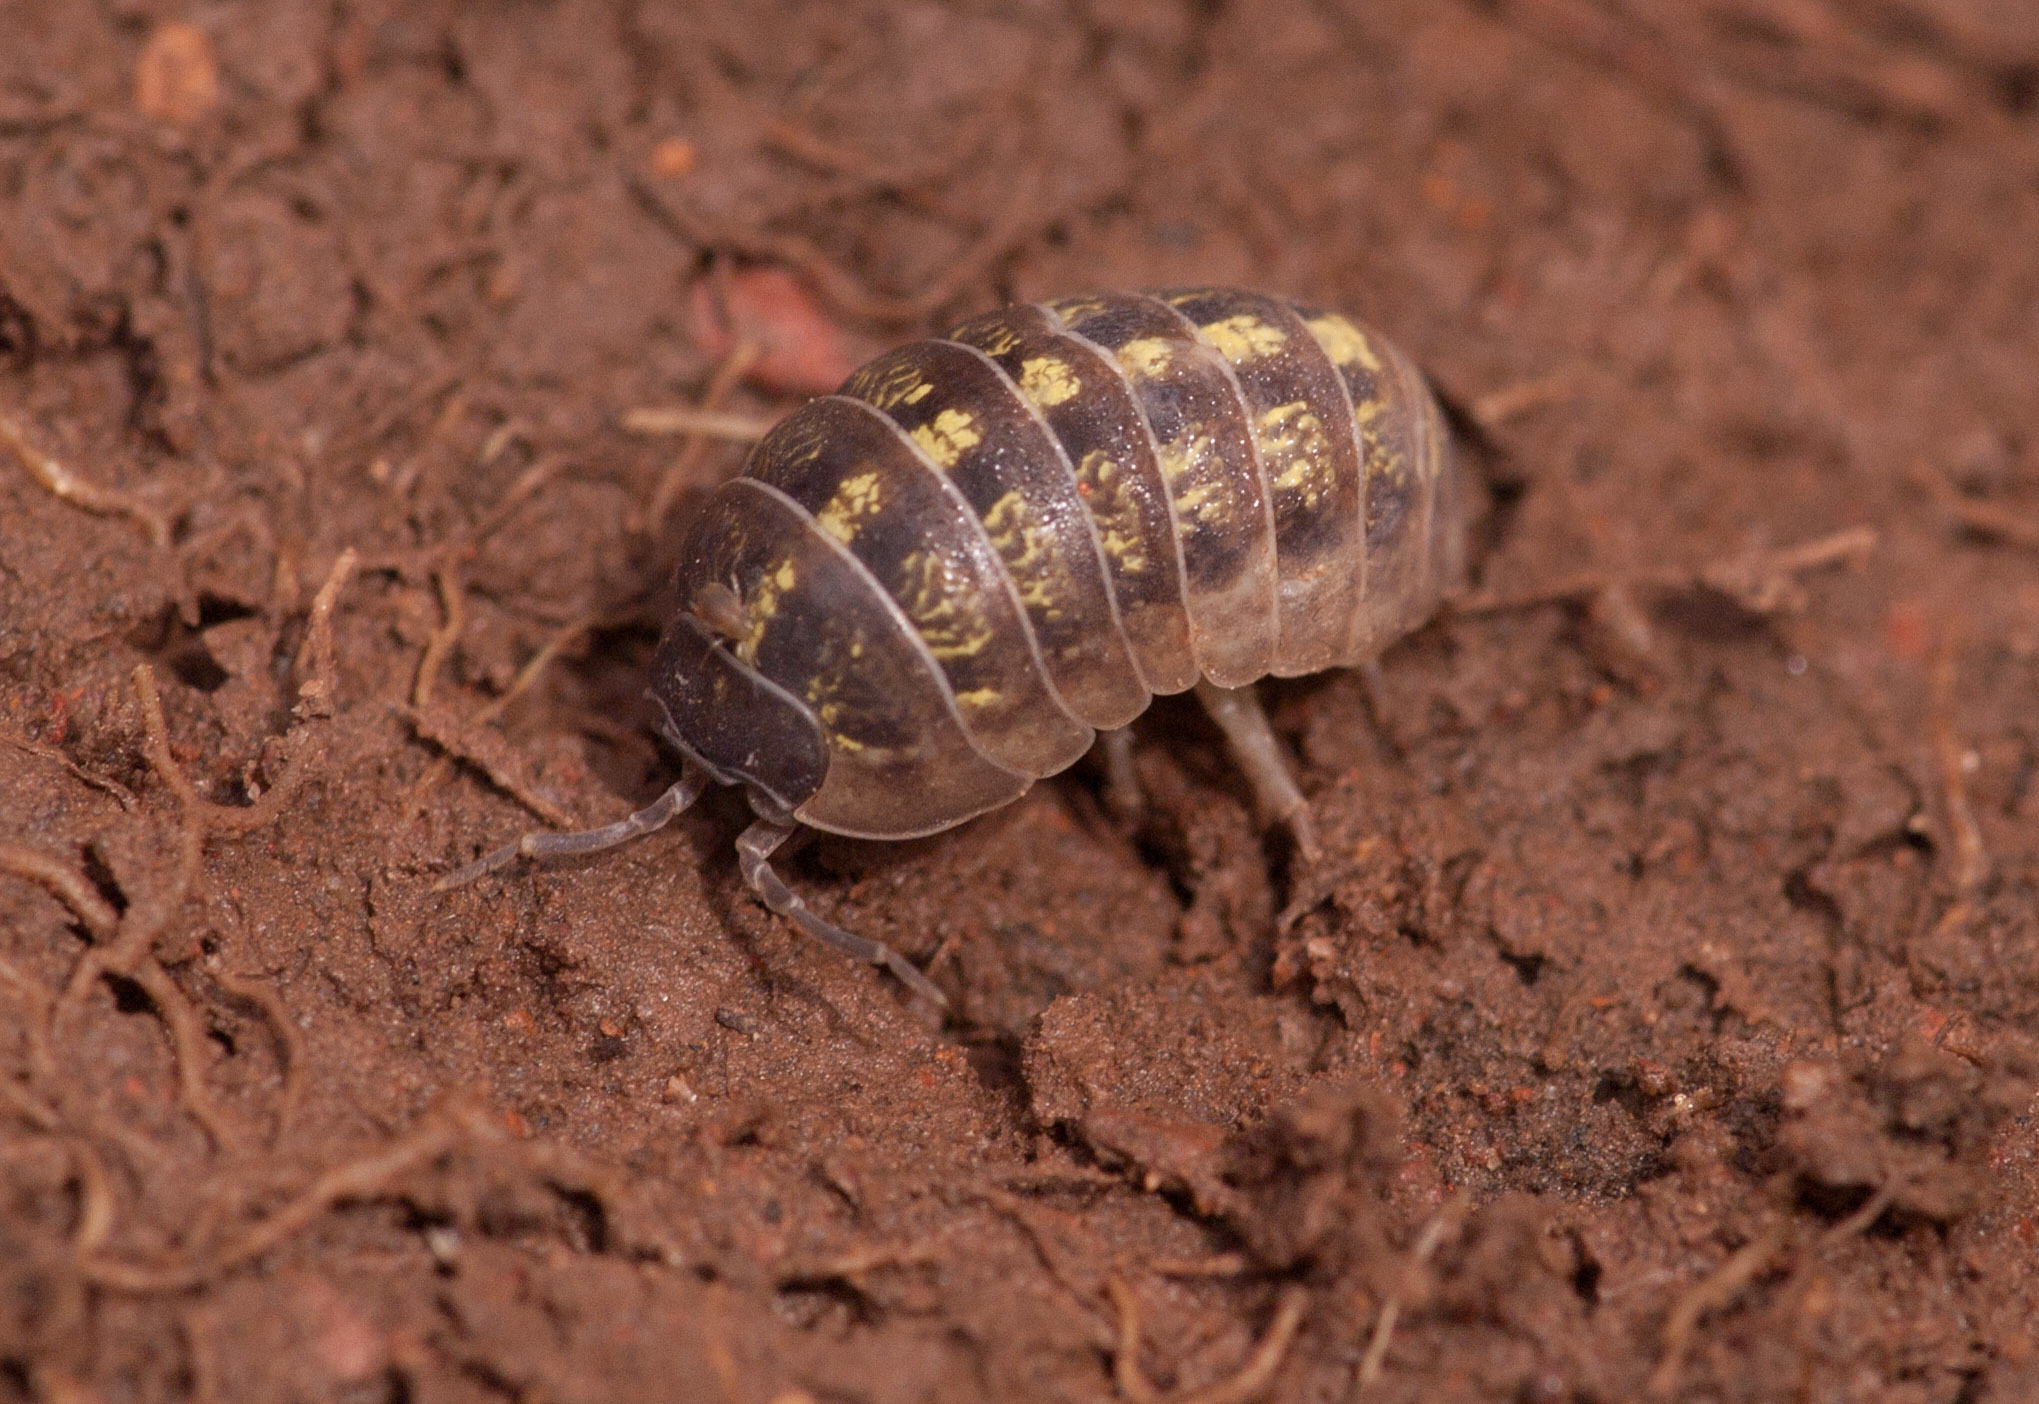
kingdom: Animalia
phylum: Arthropoda
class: Malacostraca
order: Isopoda
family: Armadillidiidae
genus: Armadillidium
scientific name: Armadillidium vulgare
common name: Common pill woodlouse
